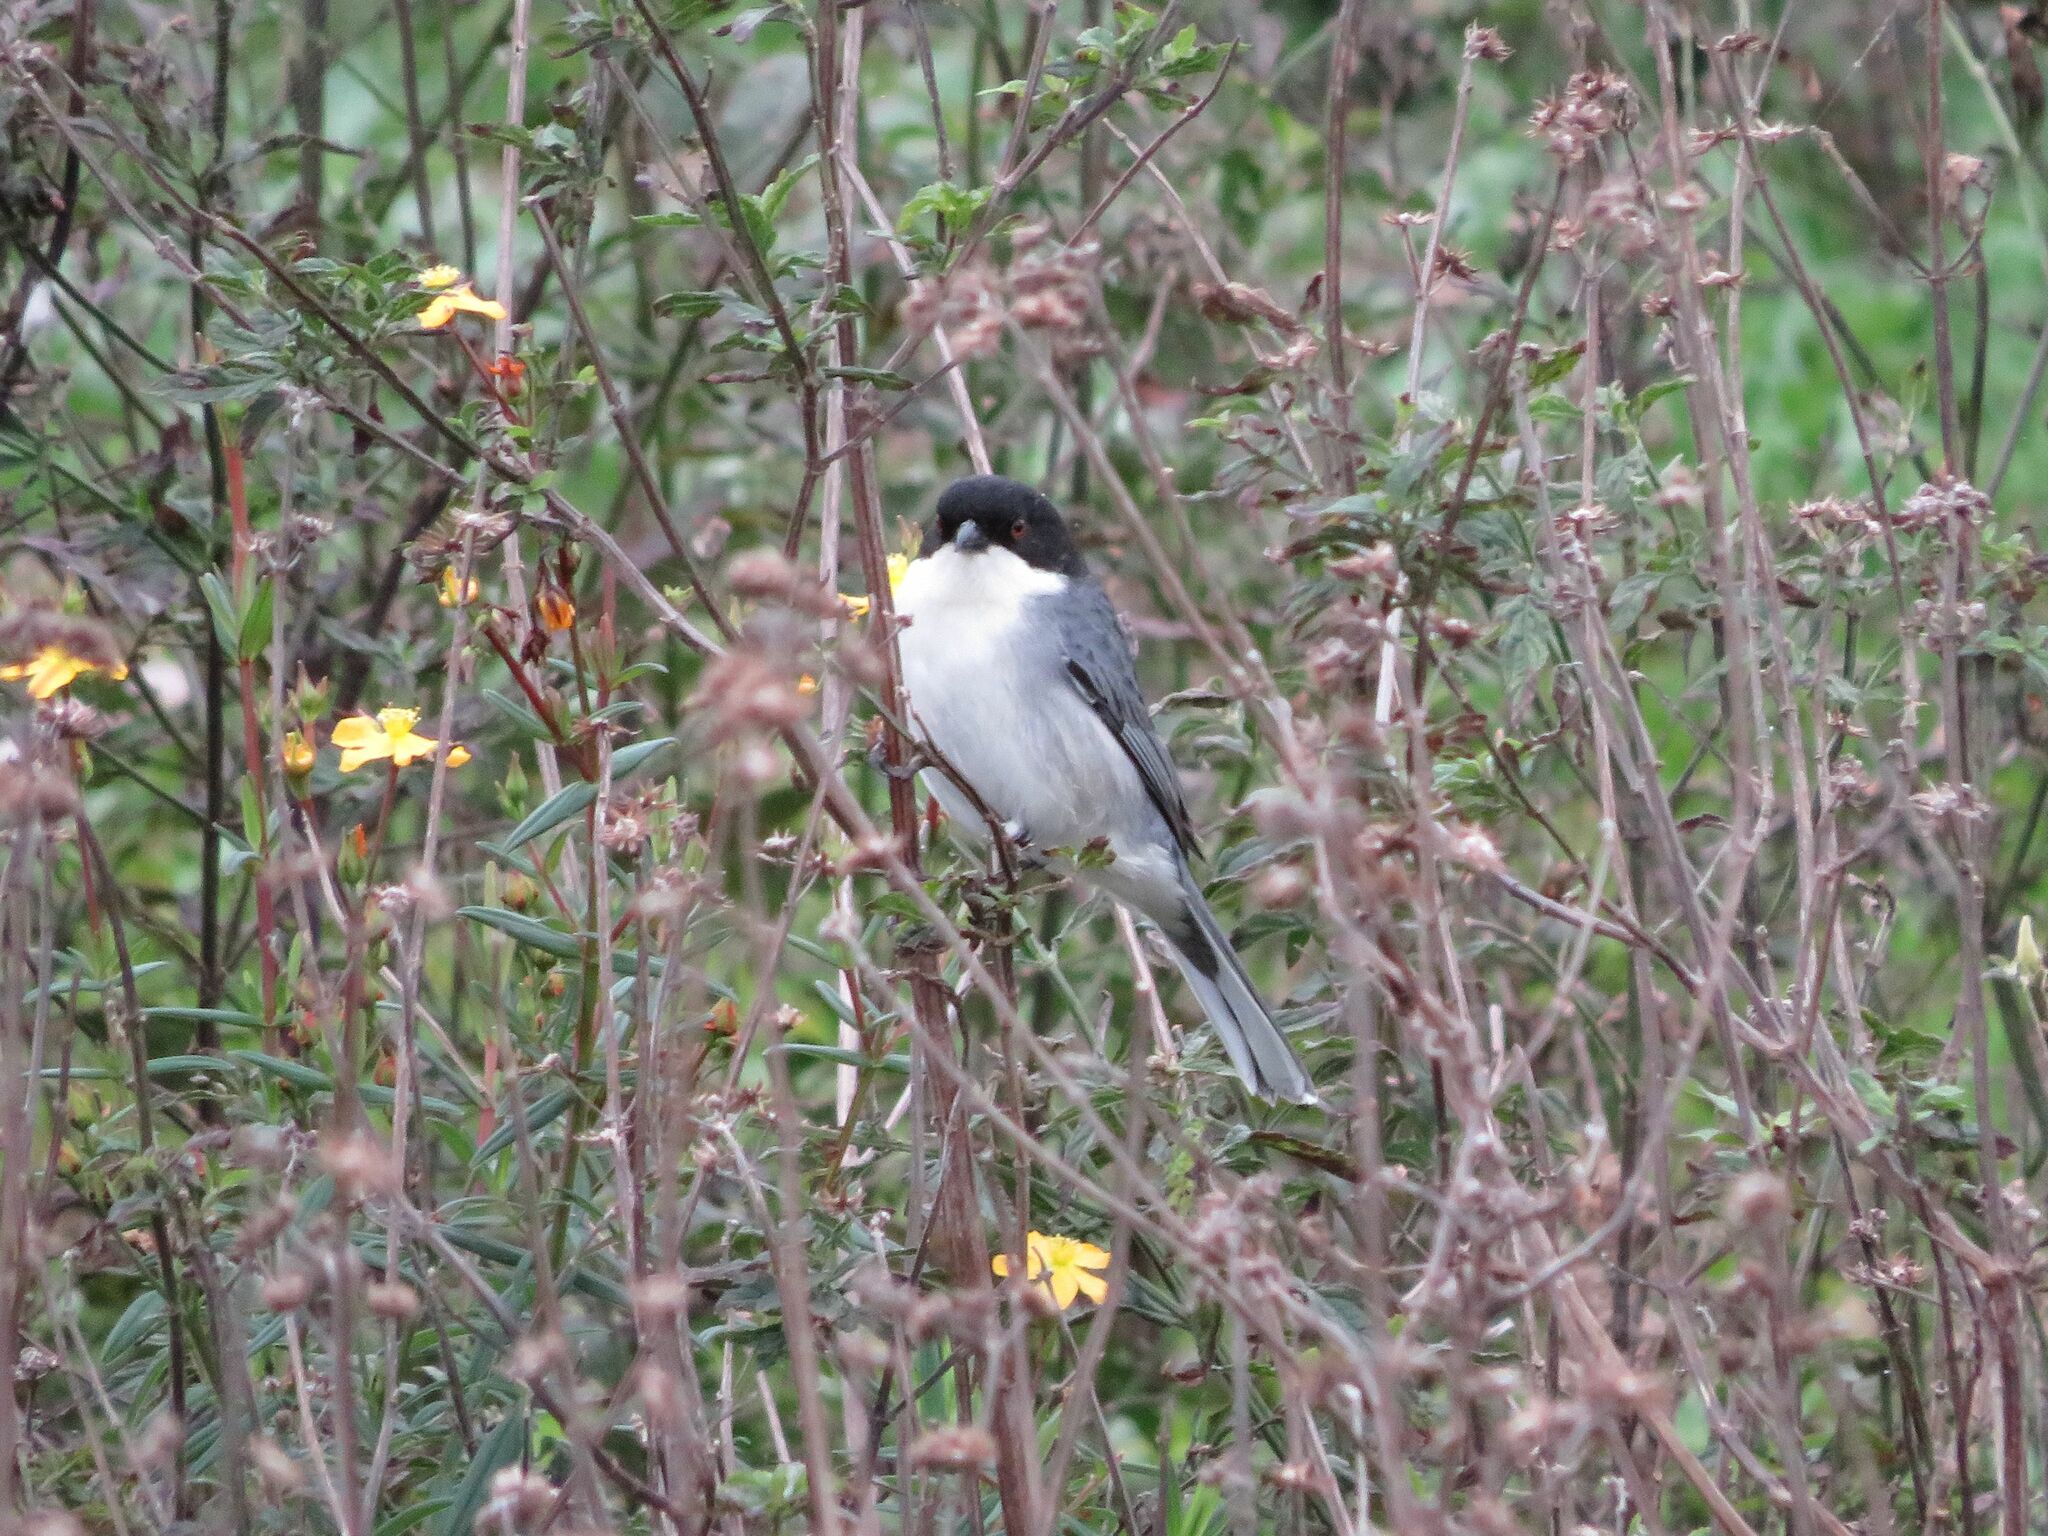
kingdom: Animalia
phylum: Chordata
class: Aves
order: Passeriformes
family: Thraupidae
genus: Microspingus
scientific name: Microspingus melanoleucus
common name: Black-capped warbling-finch
